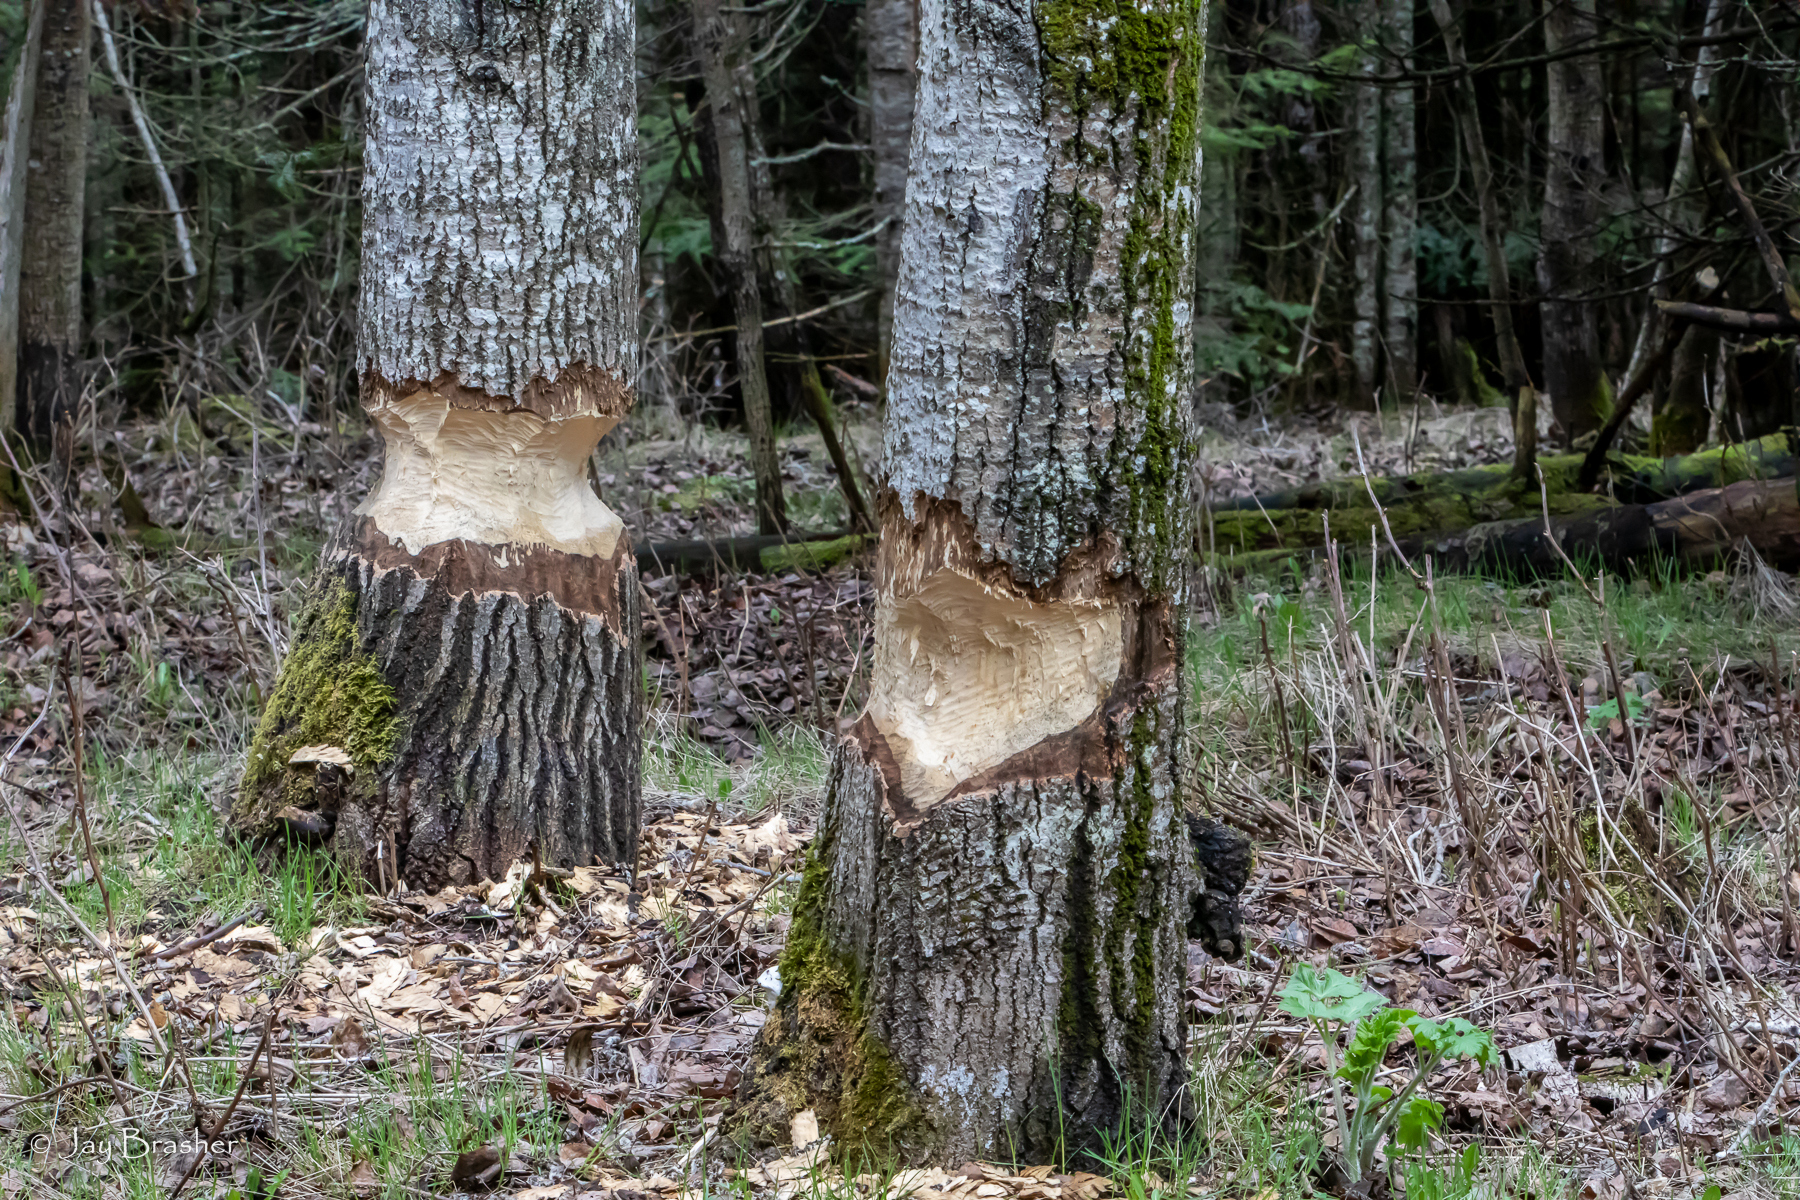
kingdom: Animalia
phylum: Chordata
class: Mammalia
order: Rodentia
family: Castoridae
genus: Castor
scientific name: Castor canadensis
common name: American beaver
